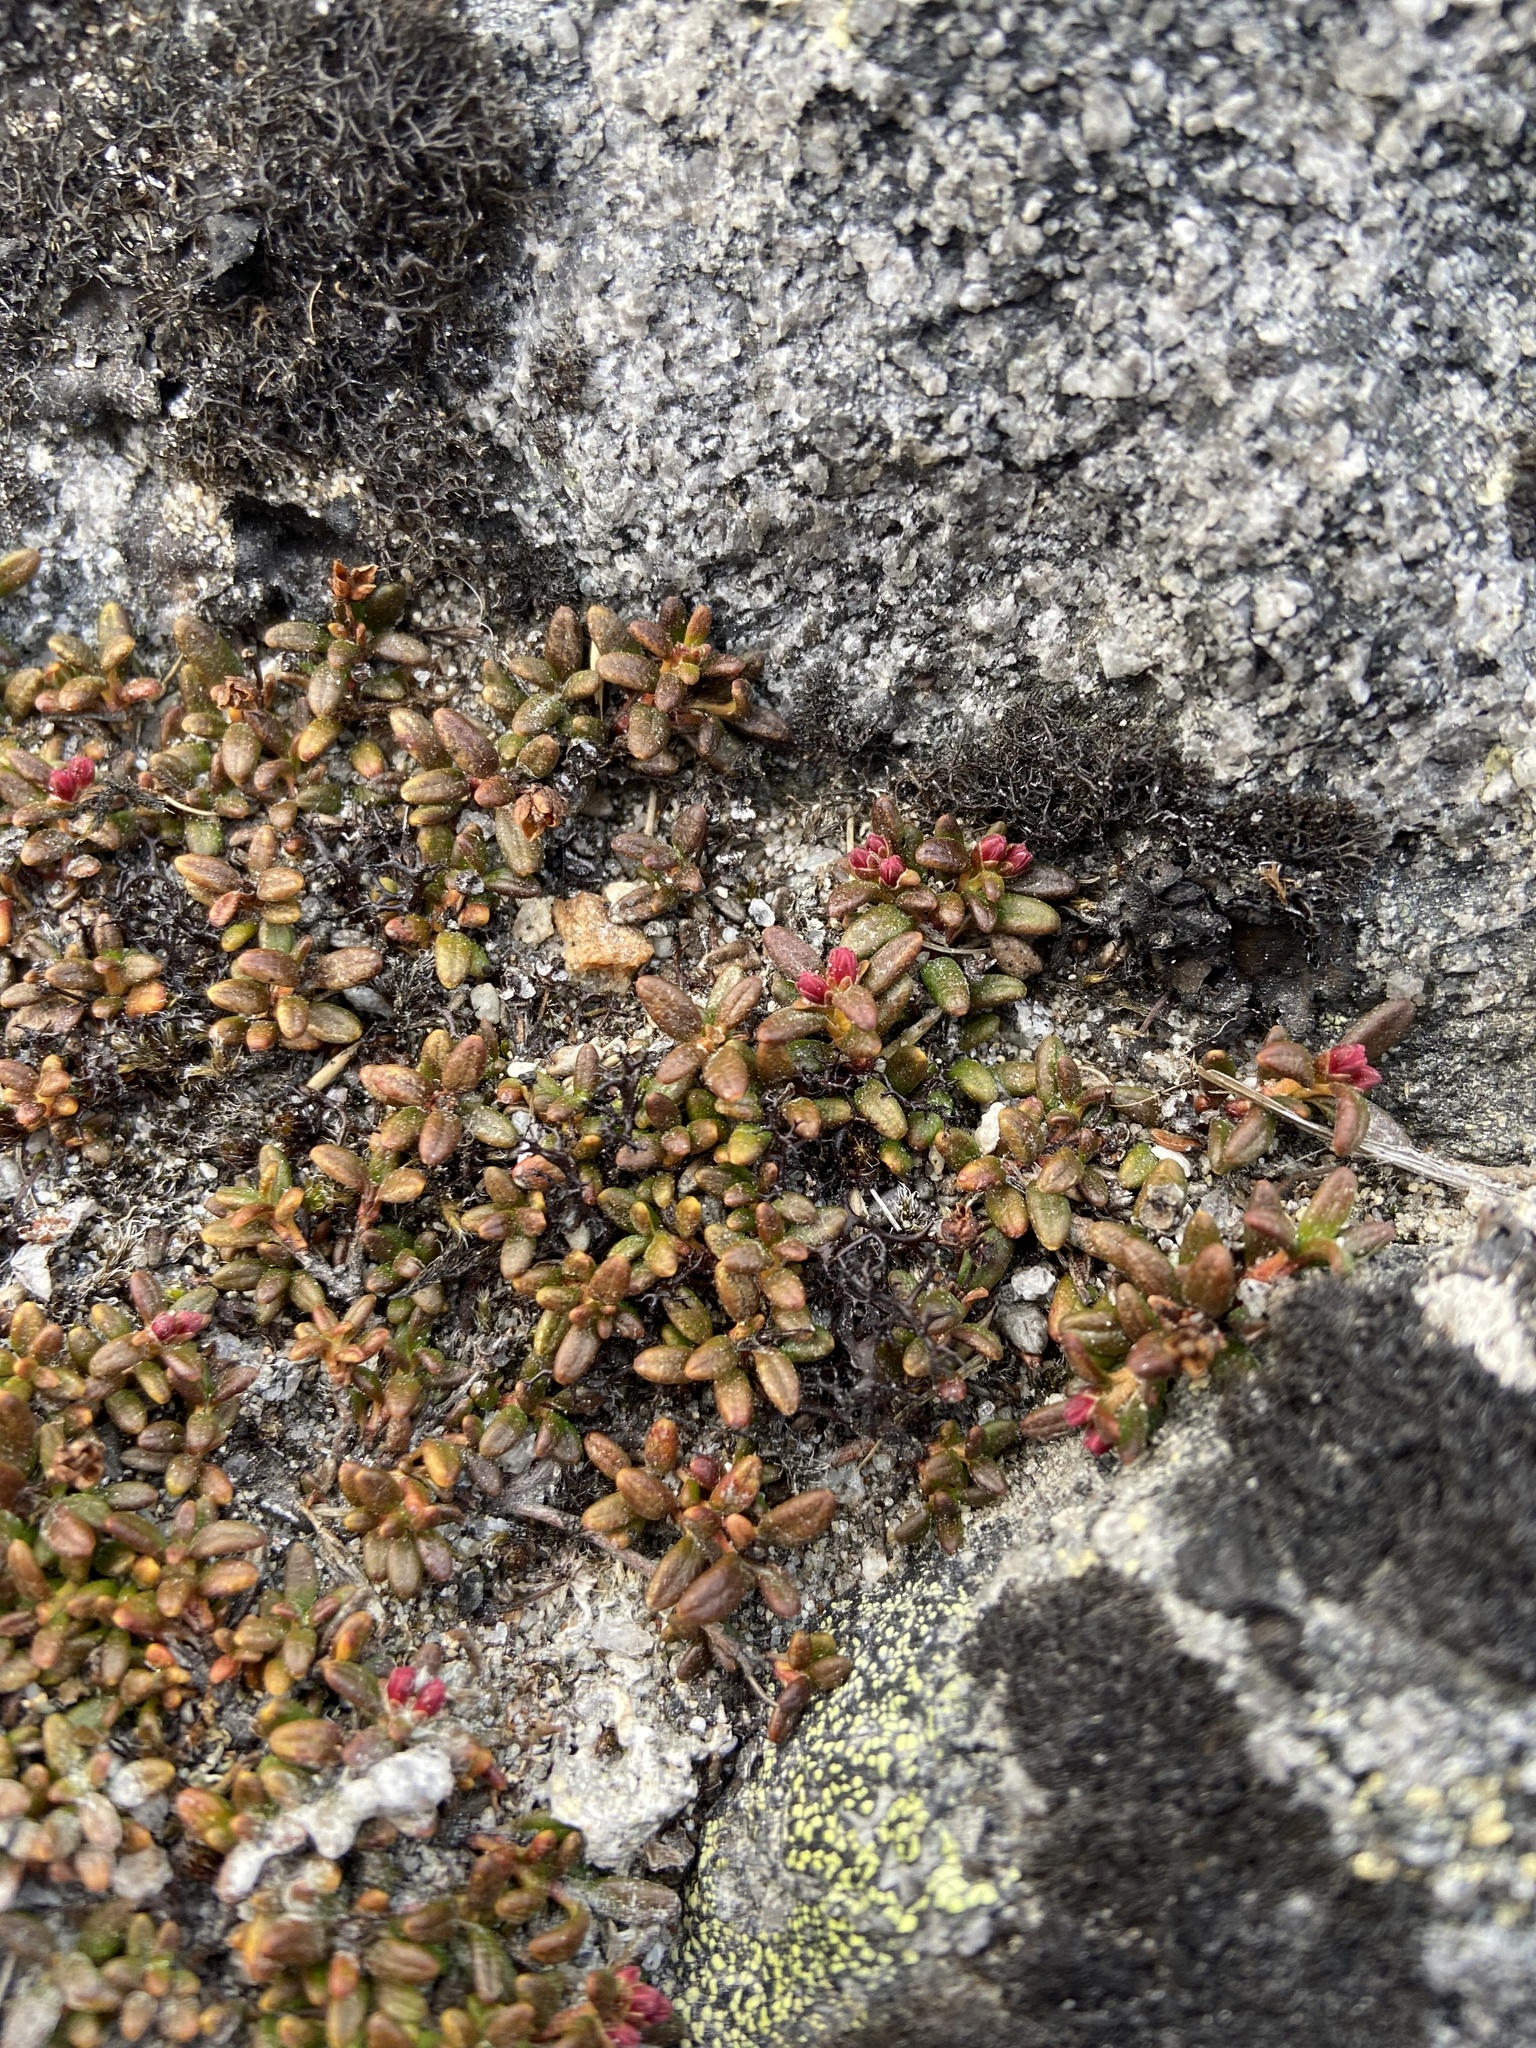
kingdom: Plantae
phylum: Tracheophyta
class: Magnoliopsida
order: Ericales
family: Ericaceae
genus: Kalmia
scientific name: Kalmia procumbens
